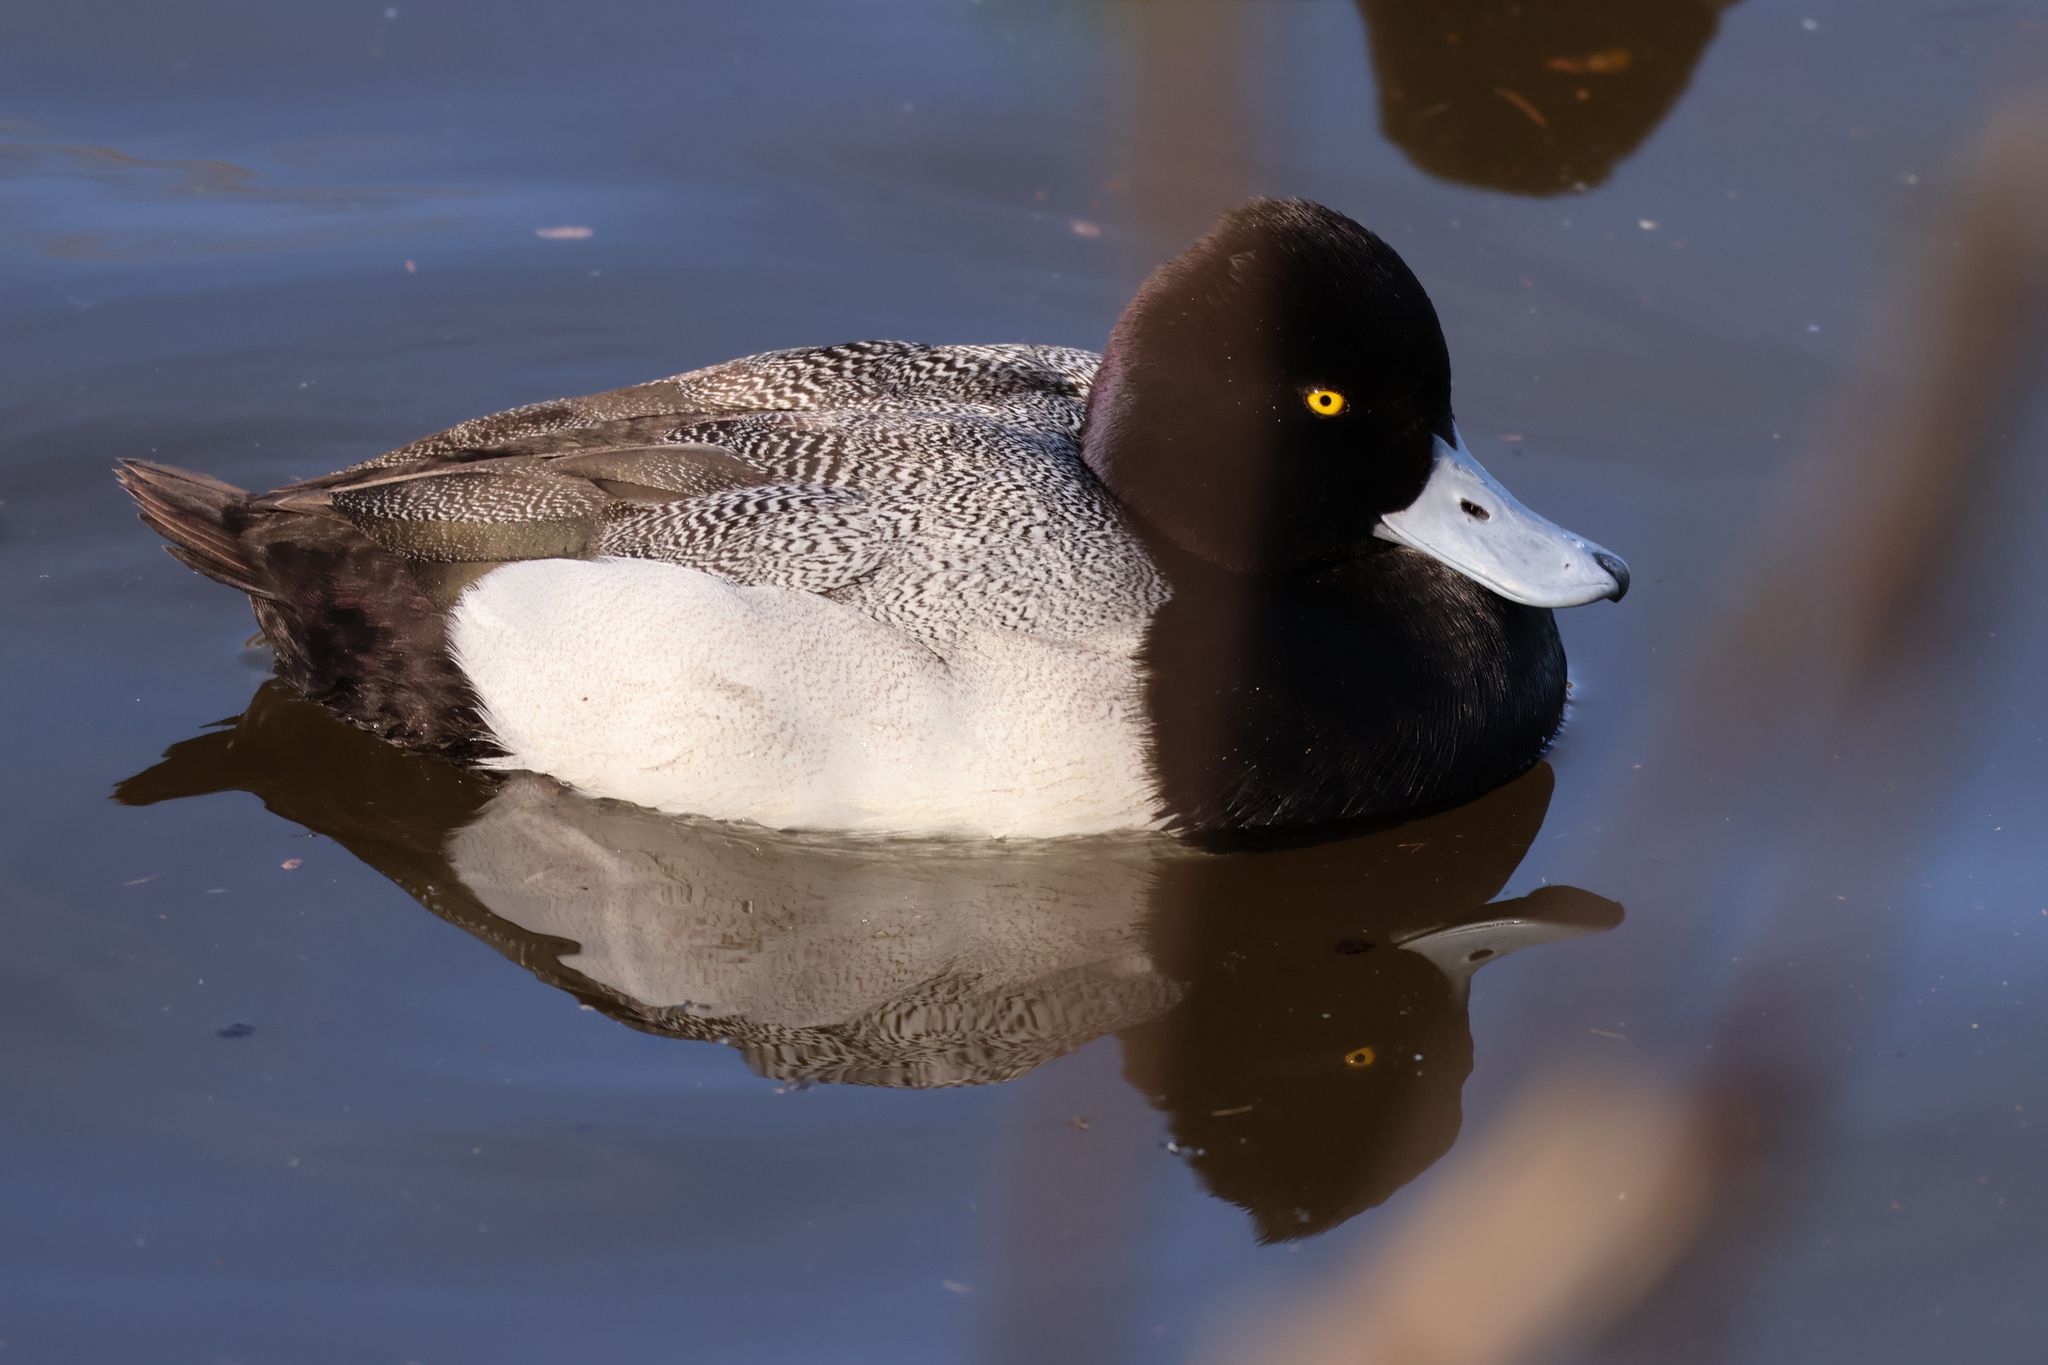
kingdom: Animalia
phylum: Chordata
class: Aves
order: Anseriformes
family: Anatidae
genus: Aythya
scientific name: Aythya affinis
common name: Lesser scaup
